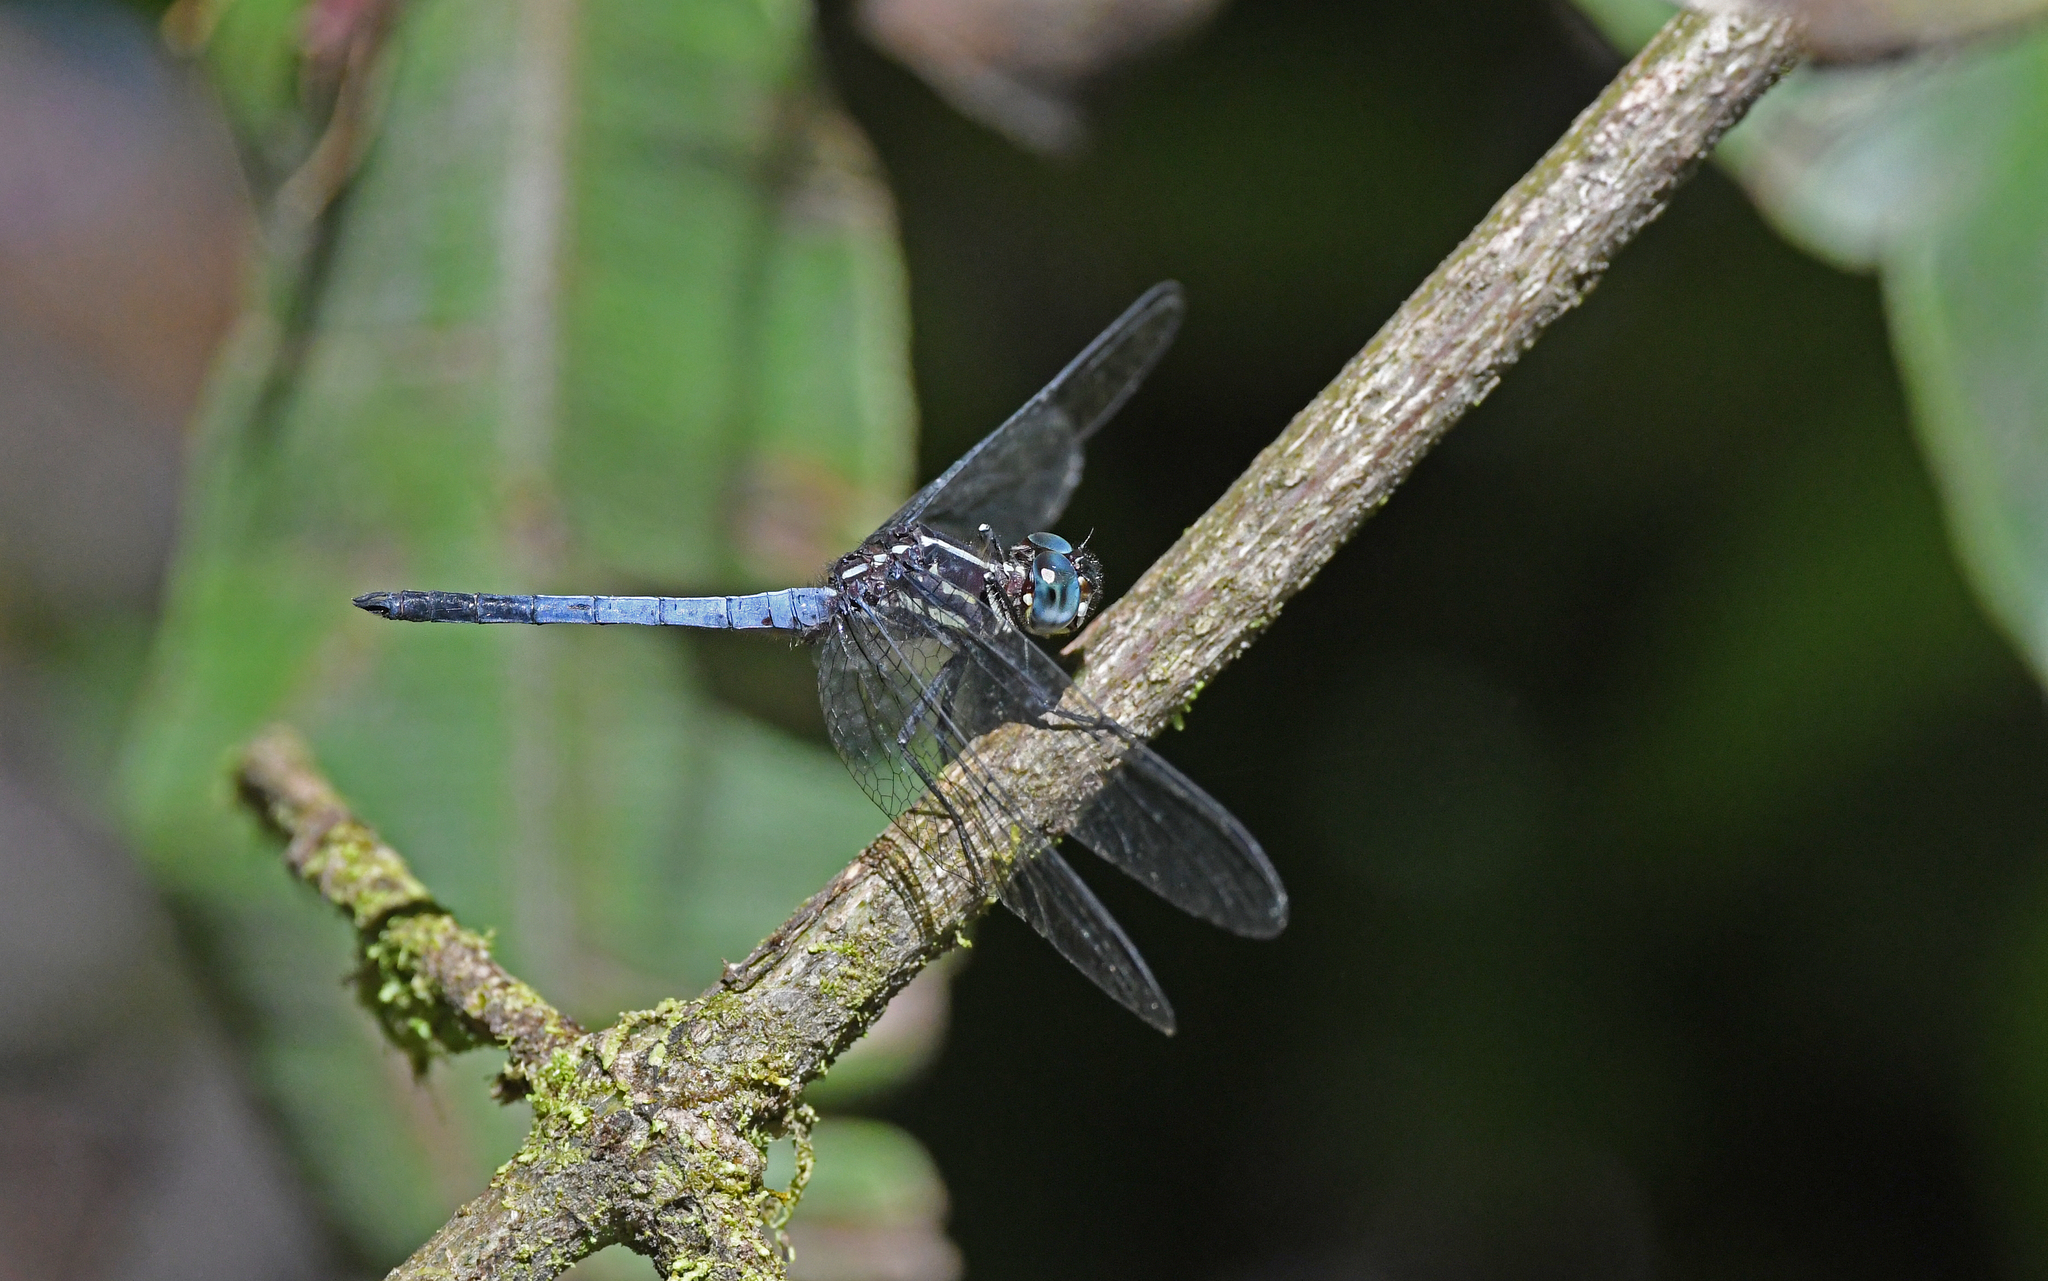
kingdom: Animalia
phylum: Arthropoda
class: Insecta
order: Odonata
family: Libellulidae
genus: Cannaphila
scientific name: Cannaphila vibex
